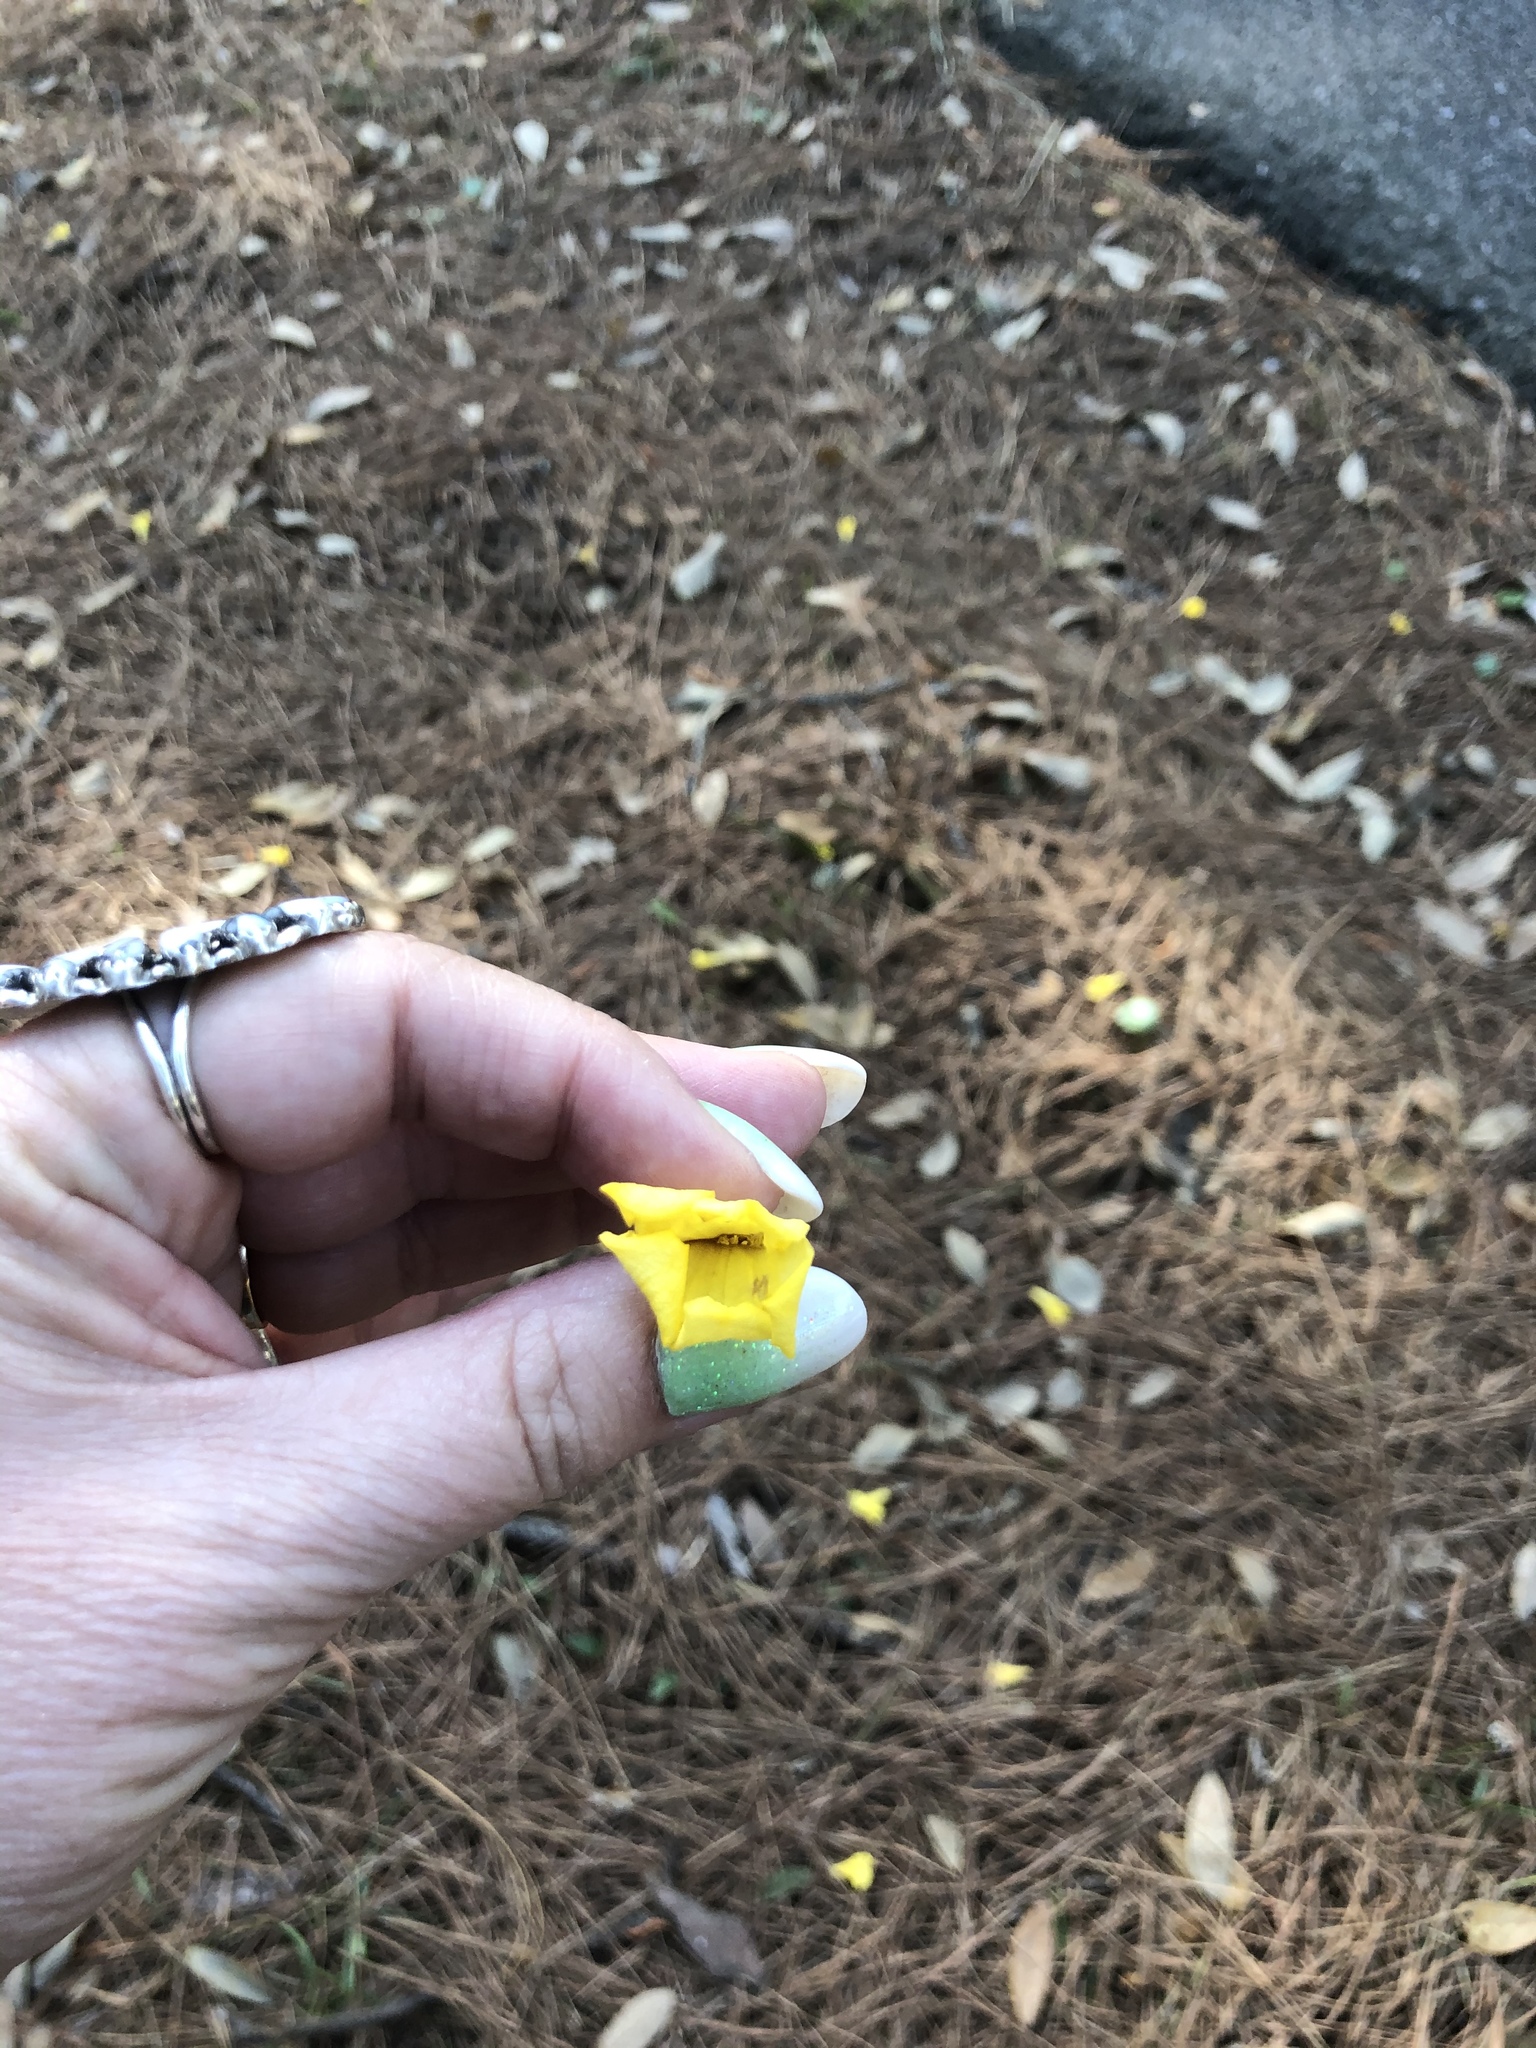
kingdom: Plantae
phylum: Tracheophyta
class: Magnoliopsida
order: Gentianales
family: Gelsemiaceae
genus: Gelsemium
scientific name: Gelsemium sempervirens
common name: Carolina-jasmine
